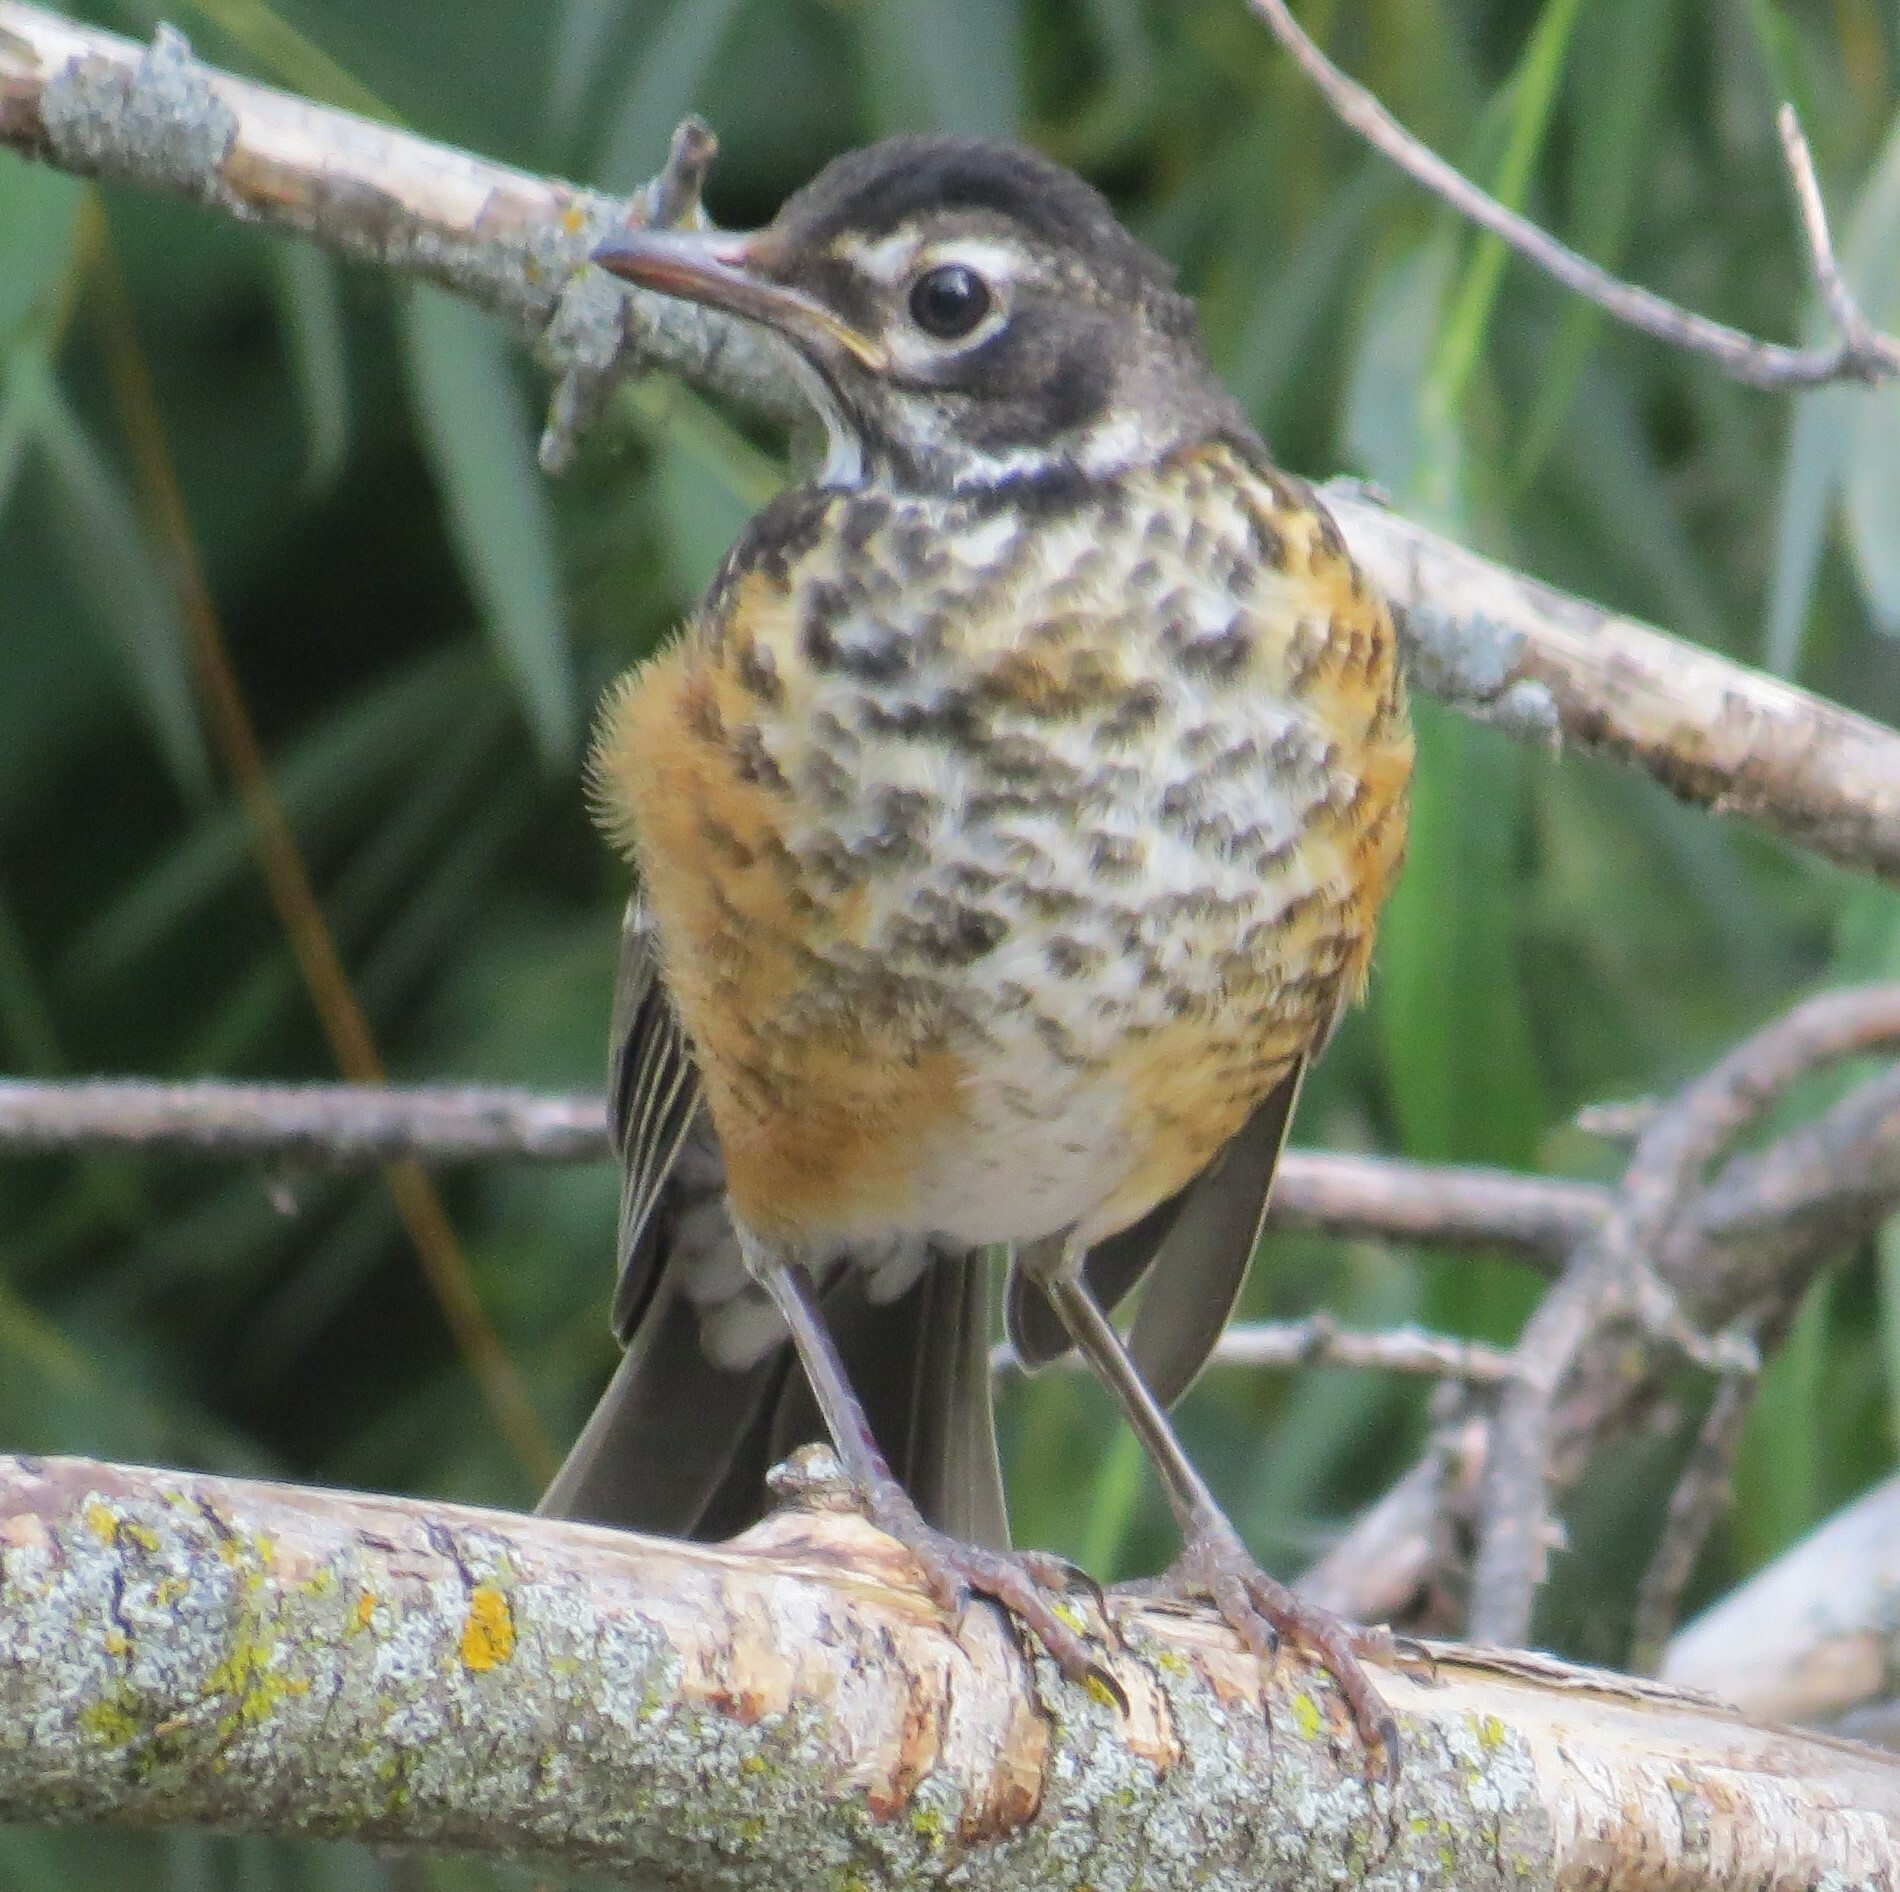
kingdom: Animalia
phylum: Chordata
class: Aves
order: Passeriformes
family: Turdidae
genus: Turdus
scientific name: Turdus migratorius
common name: American robin
